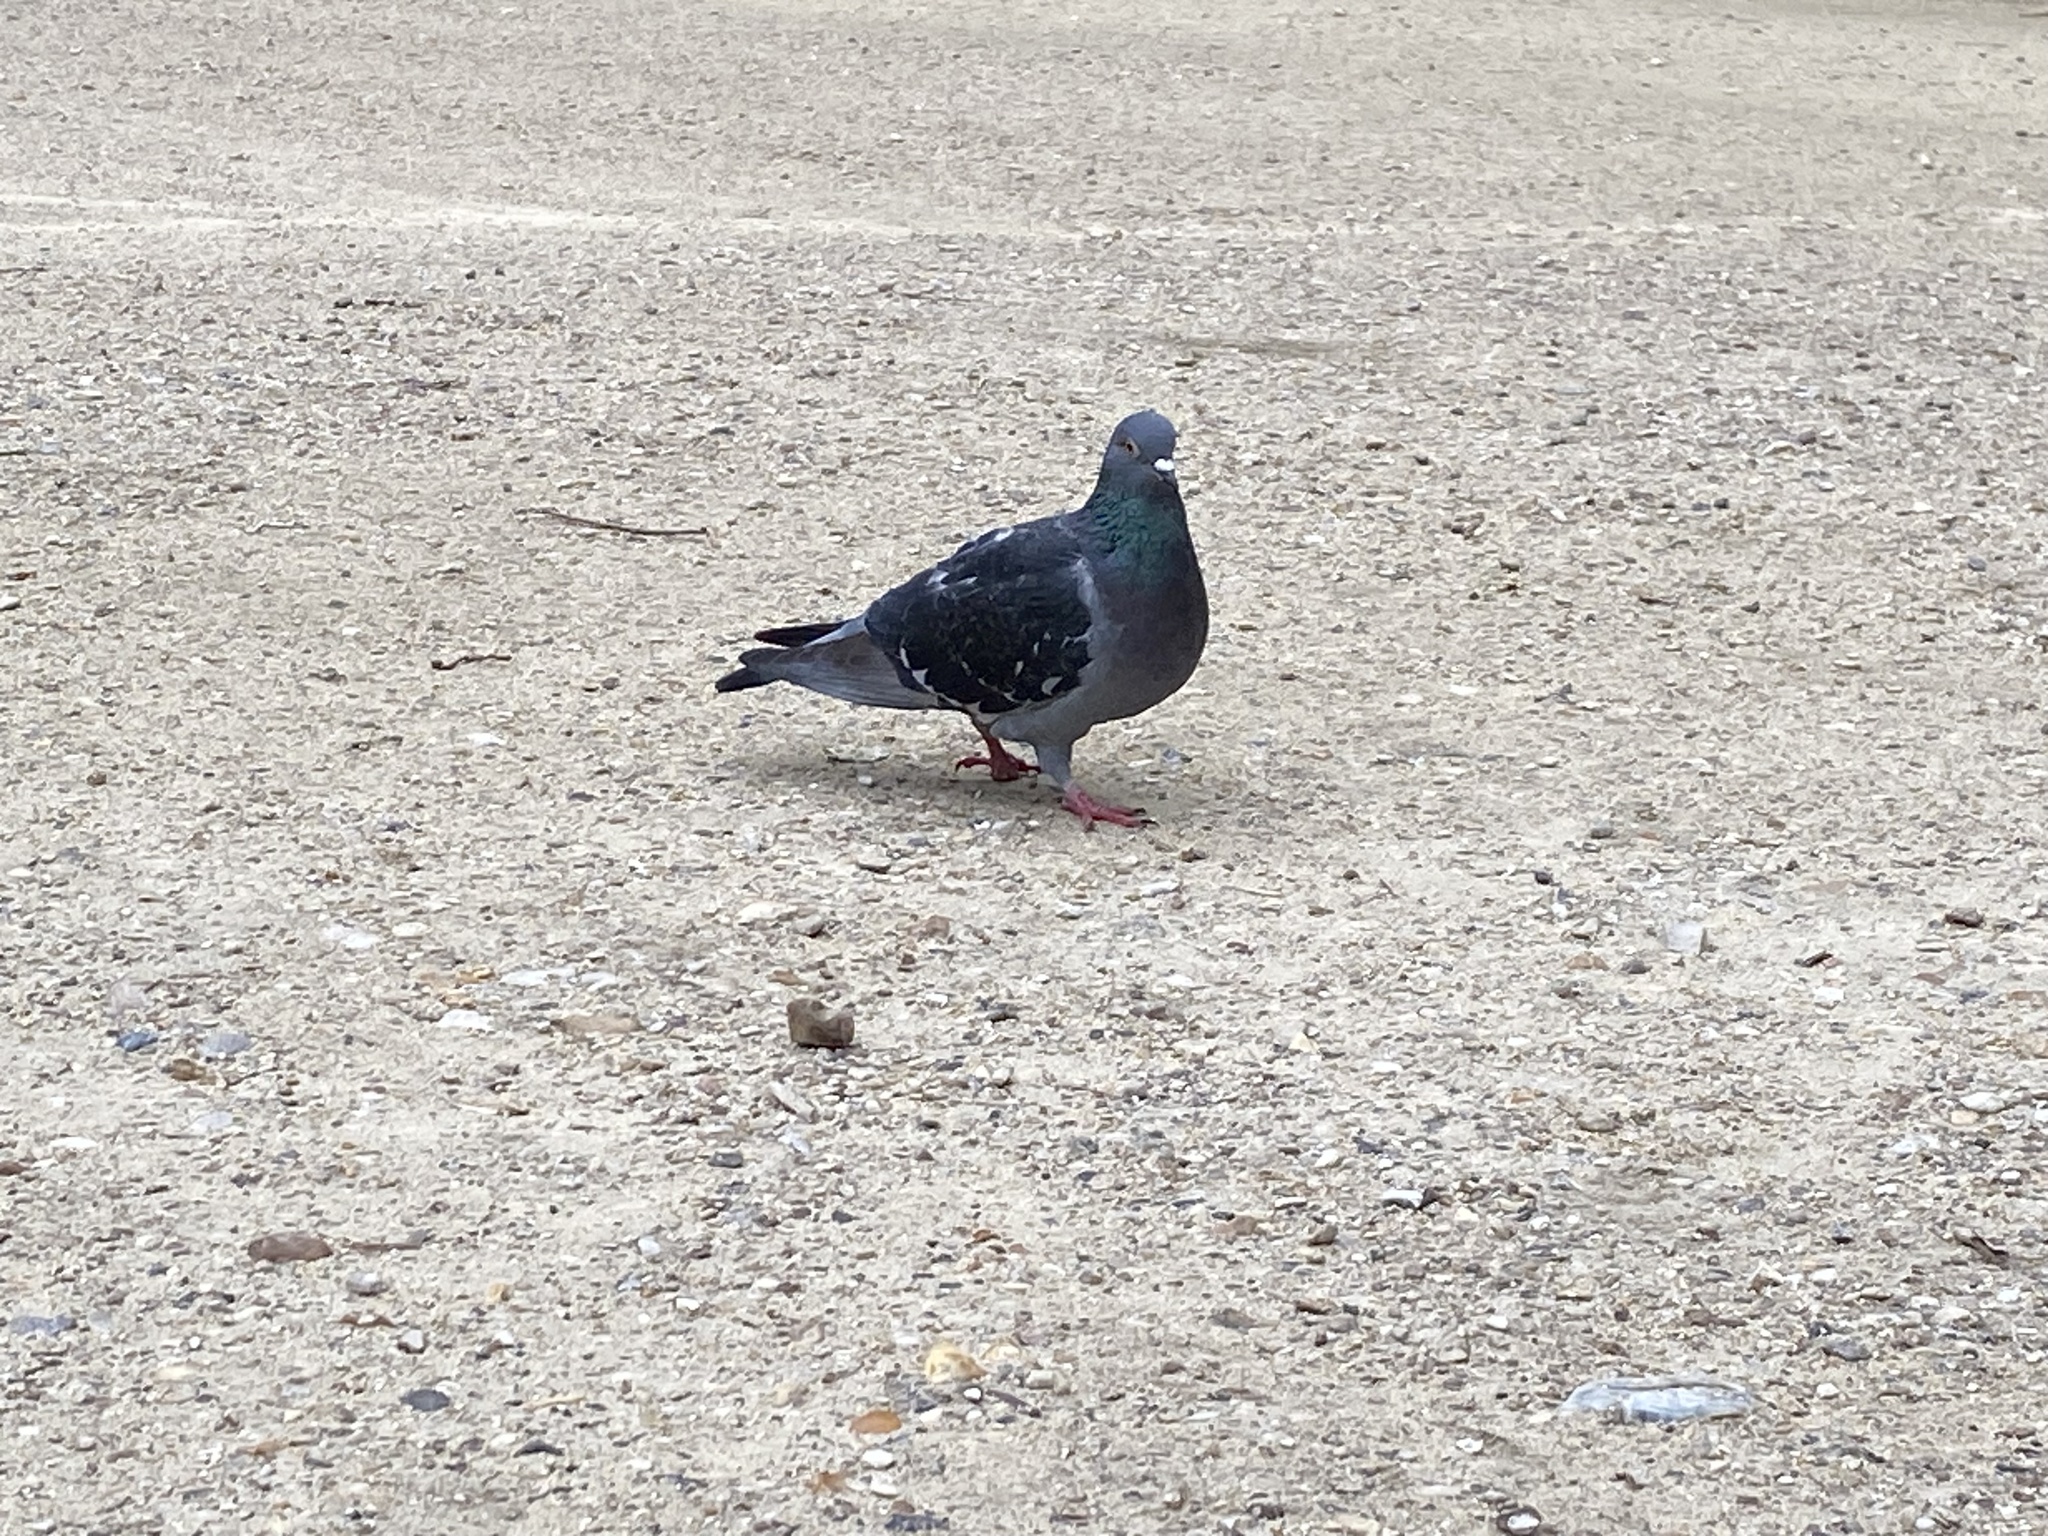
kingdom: Animalia
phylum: Chordata
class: Aves
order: Columbiformes
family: Columbidae
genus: Columba
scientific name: Columba livia
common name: Rock pigeon
